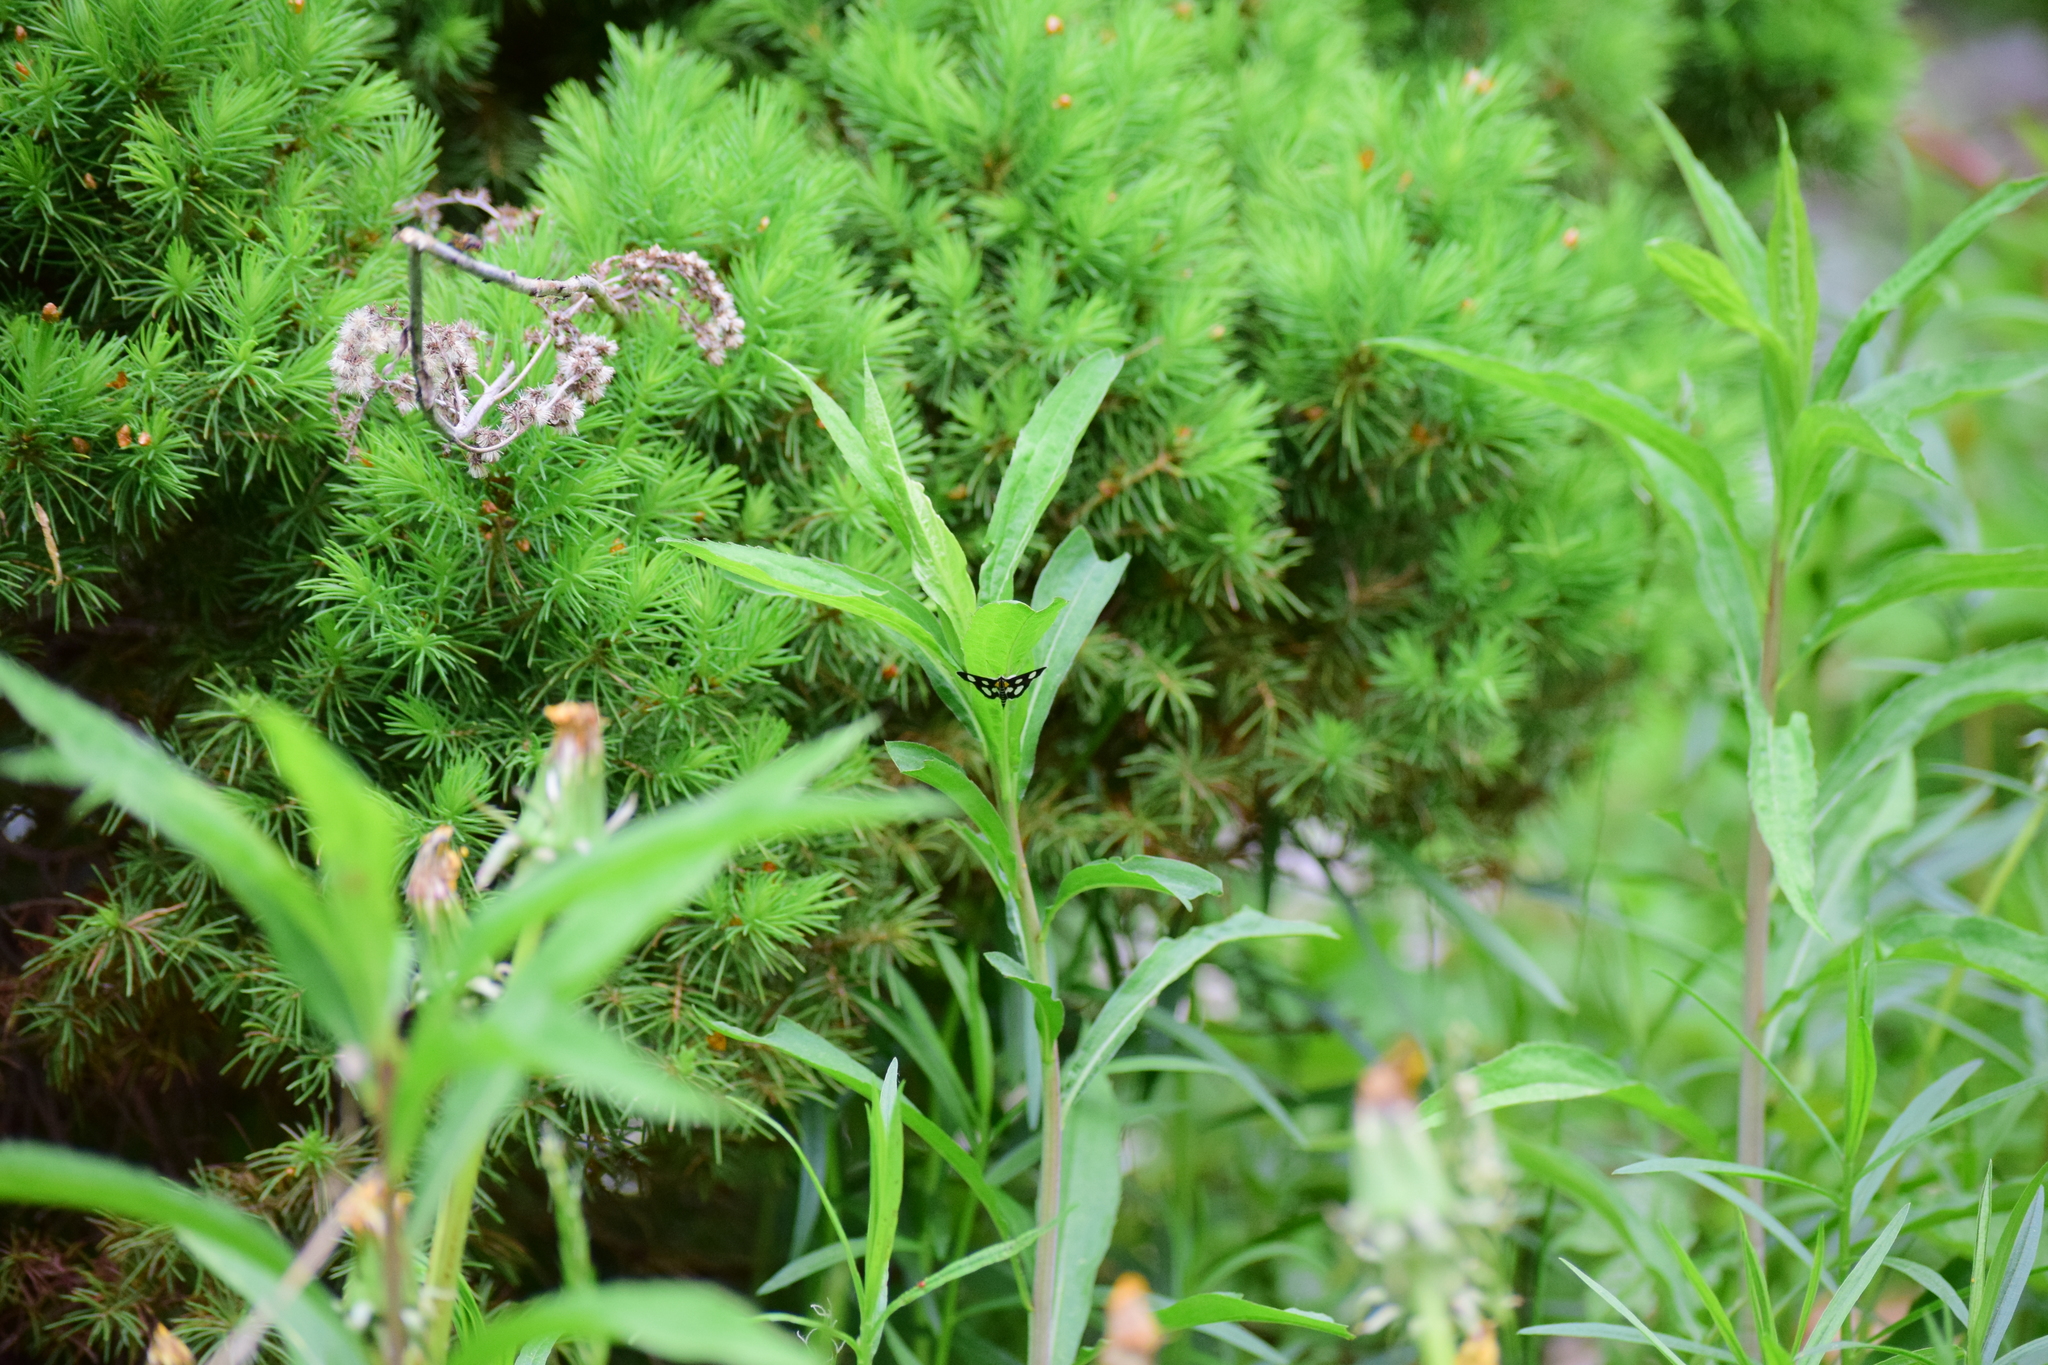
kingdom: Animalia
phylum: Arthropoda
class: Insecta
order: Lepidoptera
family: Crambidae
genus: Anania
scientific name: Anania funebris
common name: White-spotted sable moth
